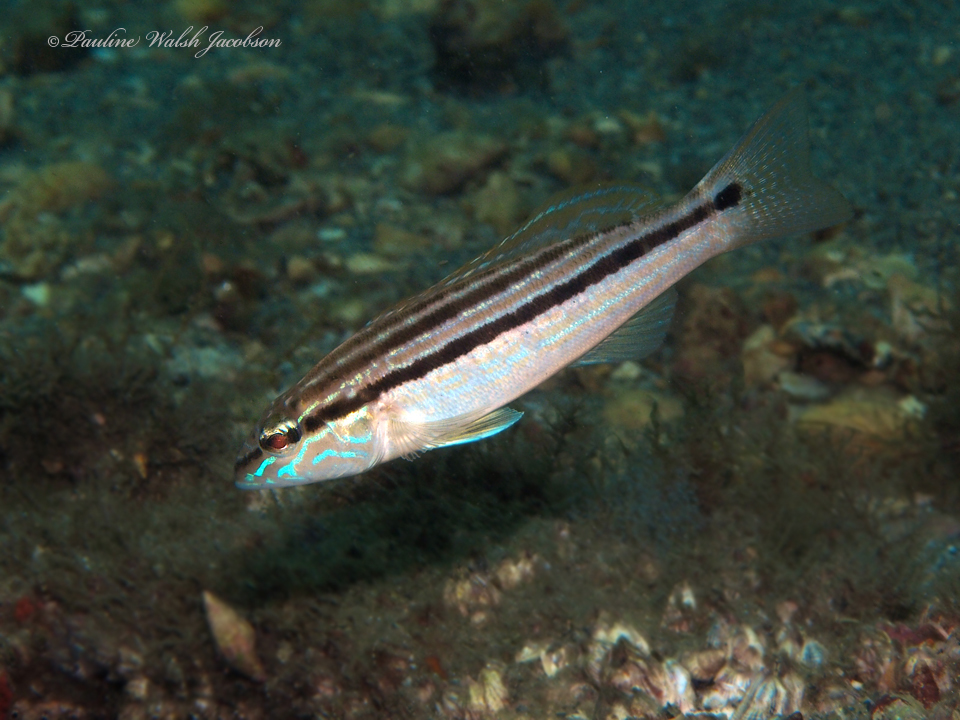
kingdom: Animalia
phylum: Chordata
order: Perciformes
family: Serranidae
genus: Diplectrum
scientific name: Diplectrum formosum
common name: Sand perch
